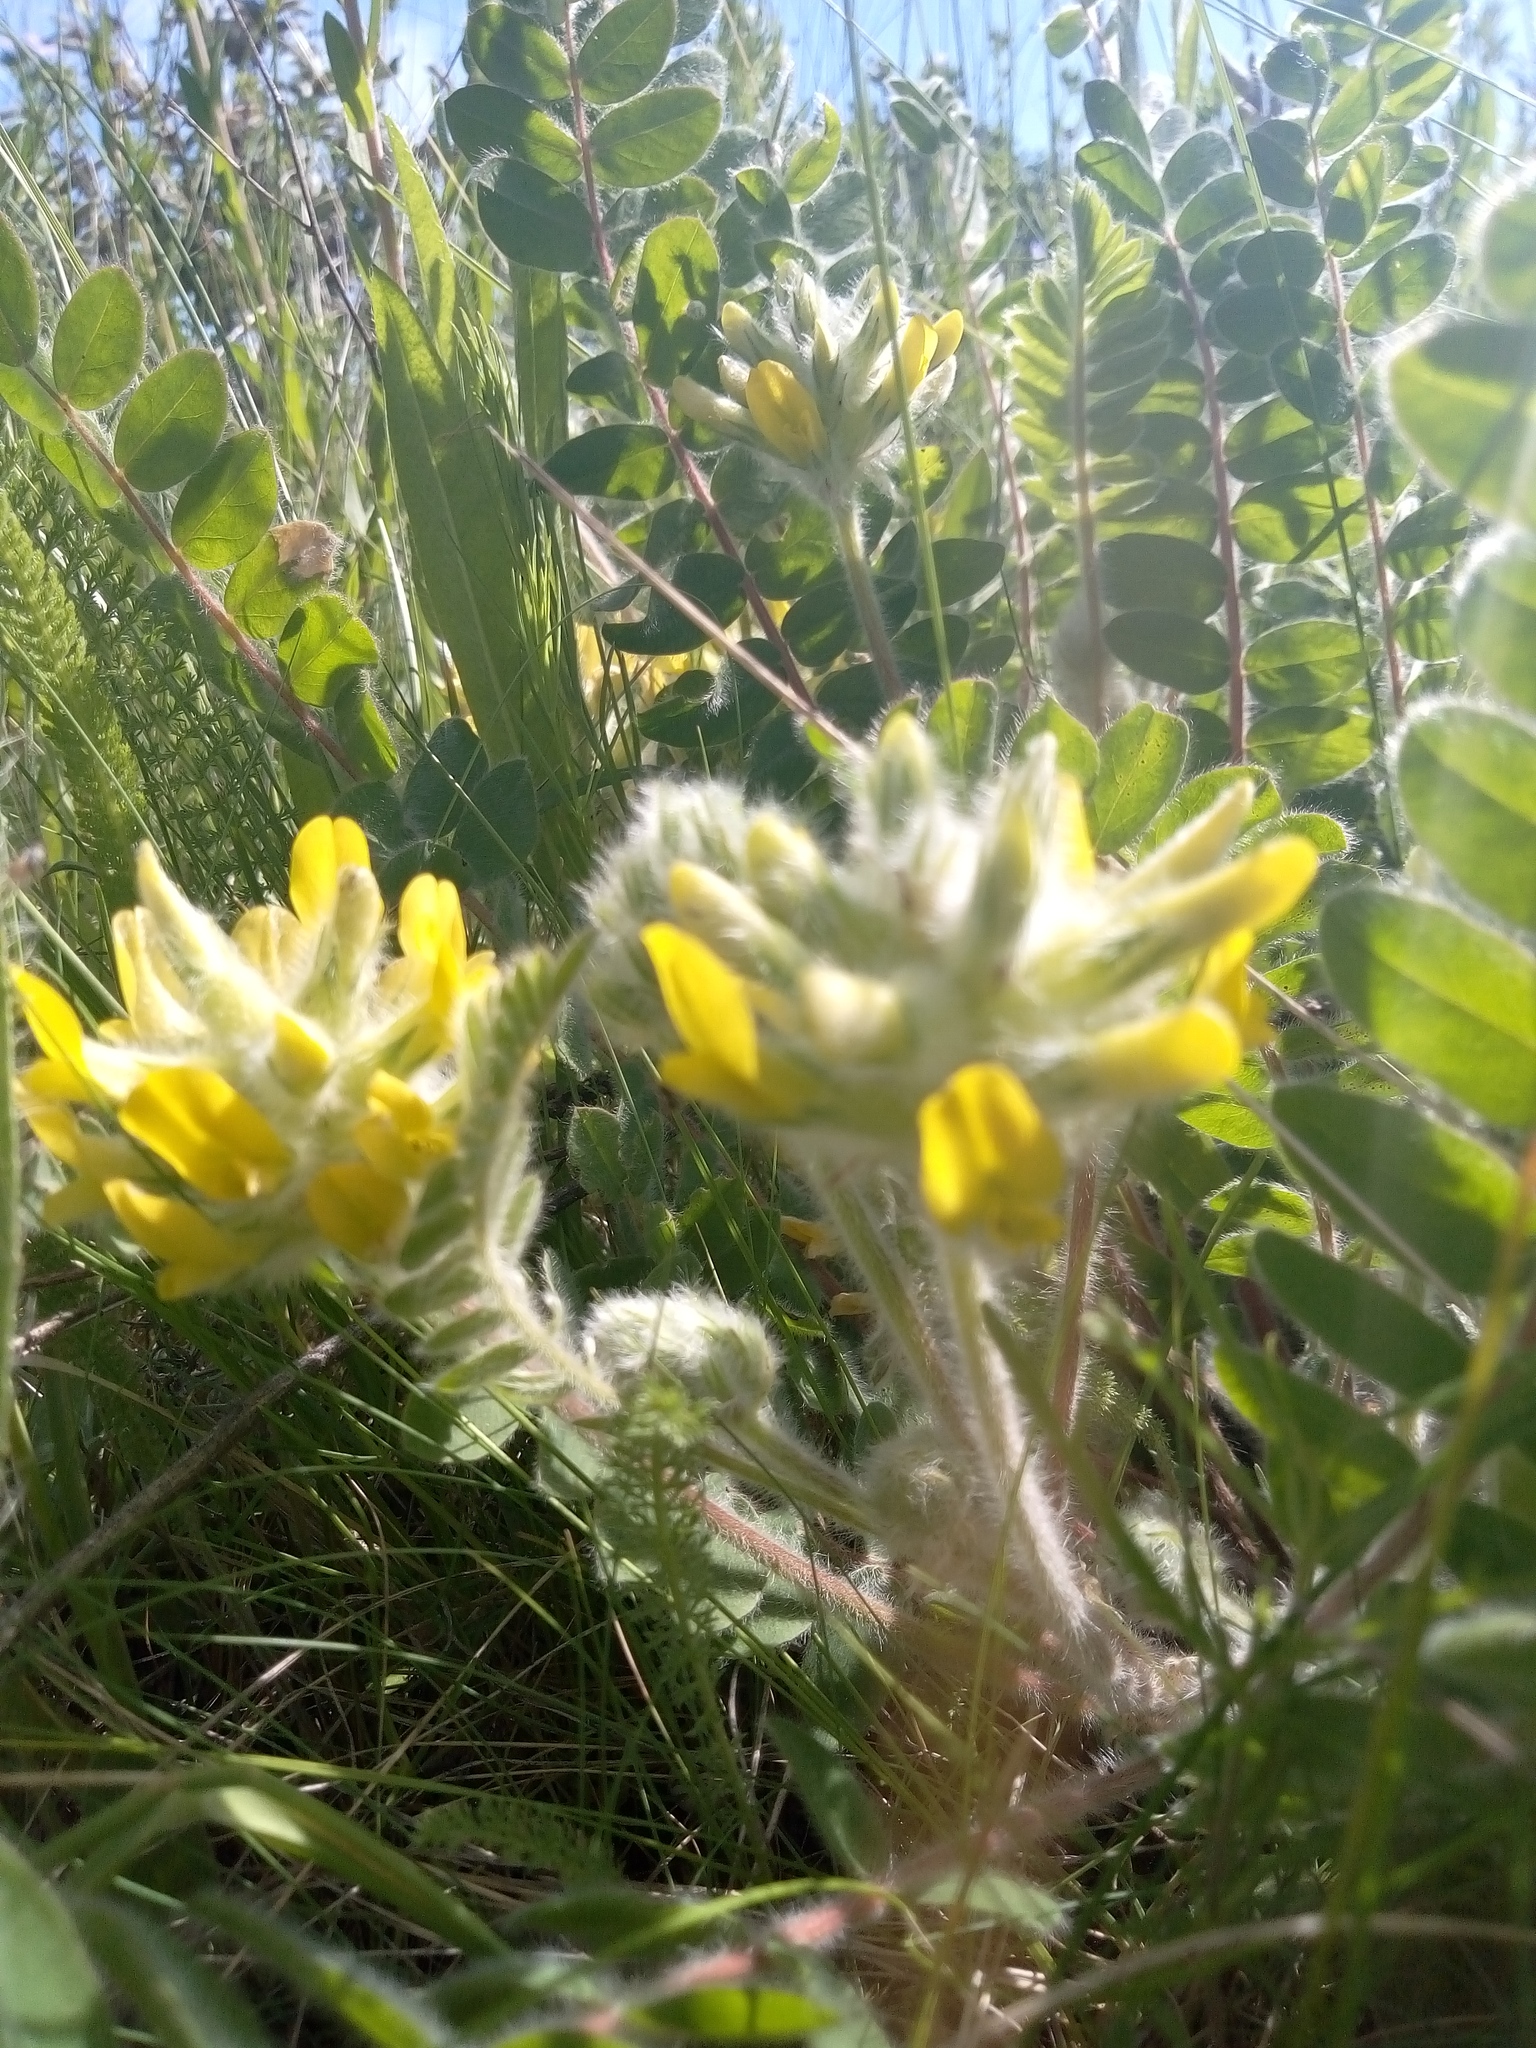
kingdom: Plantae
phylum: Tracheophyta
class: Magnoliopsida
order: Fabales
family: Fabaceae
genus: Astragalus
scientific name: Astragalus dasyanthus
